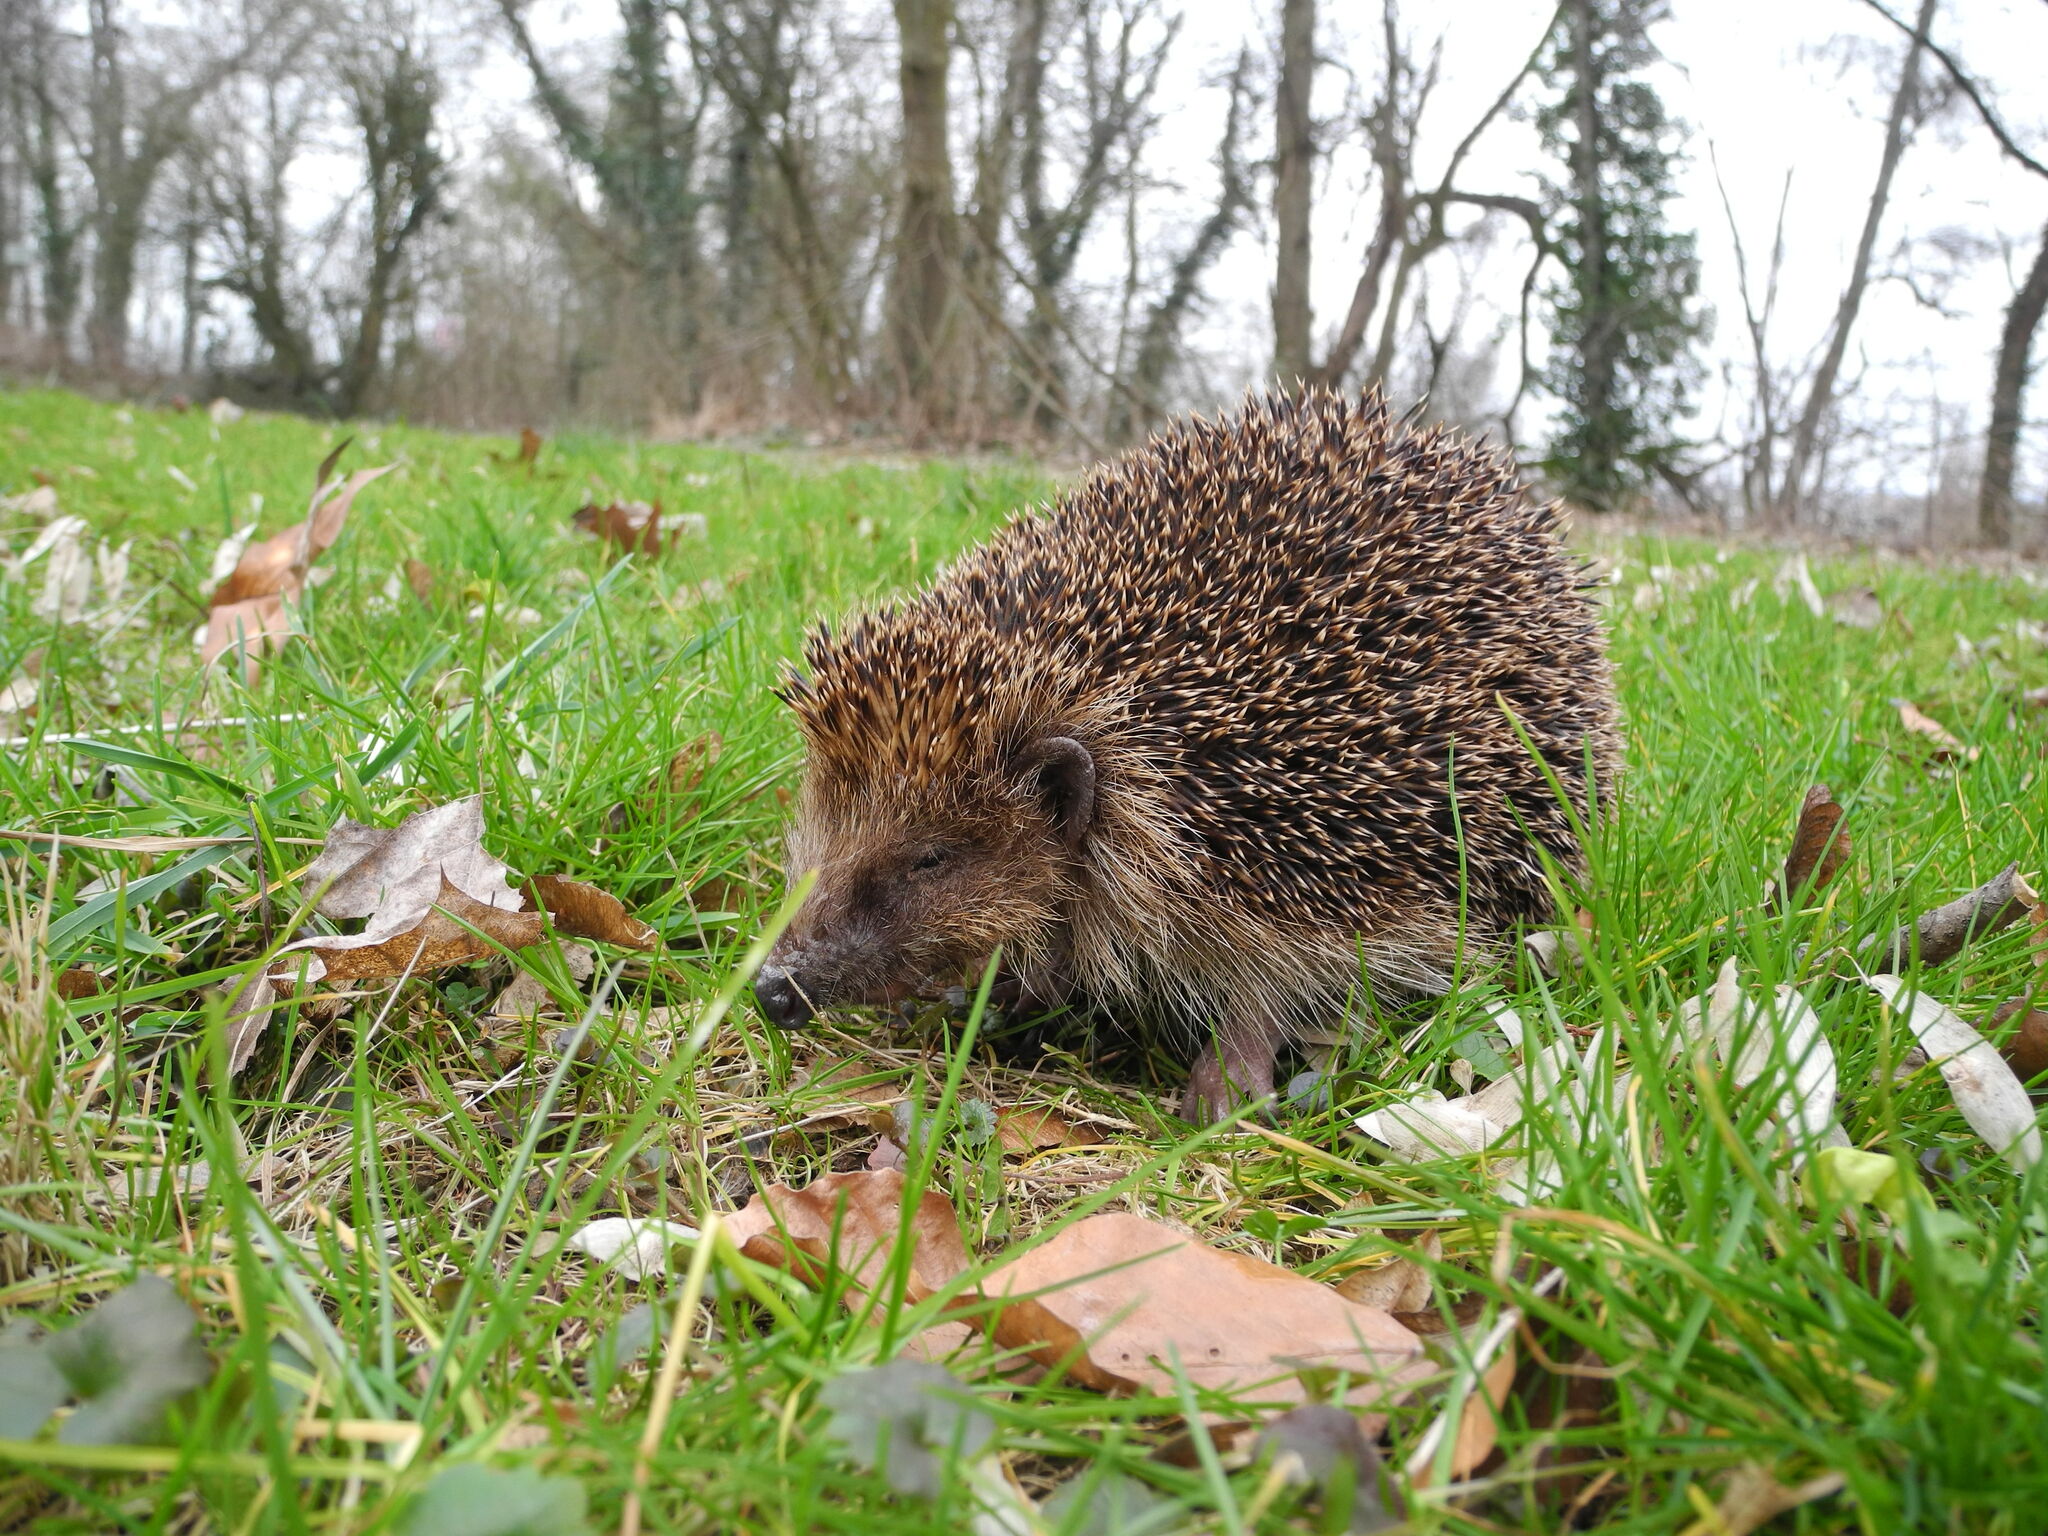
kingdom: Animalia
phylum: Chordata
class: Mammalia
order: Erinaceomorpha
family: Erinaceidae
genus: Erinaceus
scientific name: Erinaceus europaeus
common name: West european hedgehog
